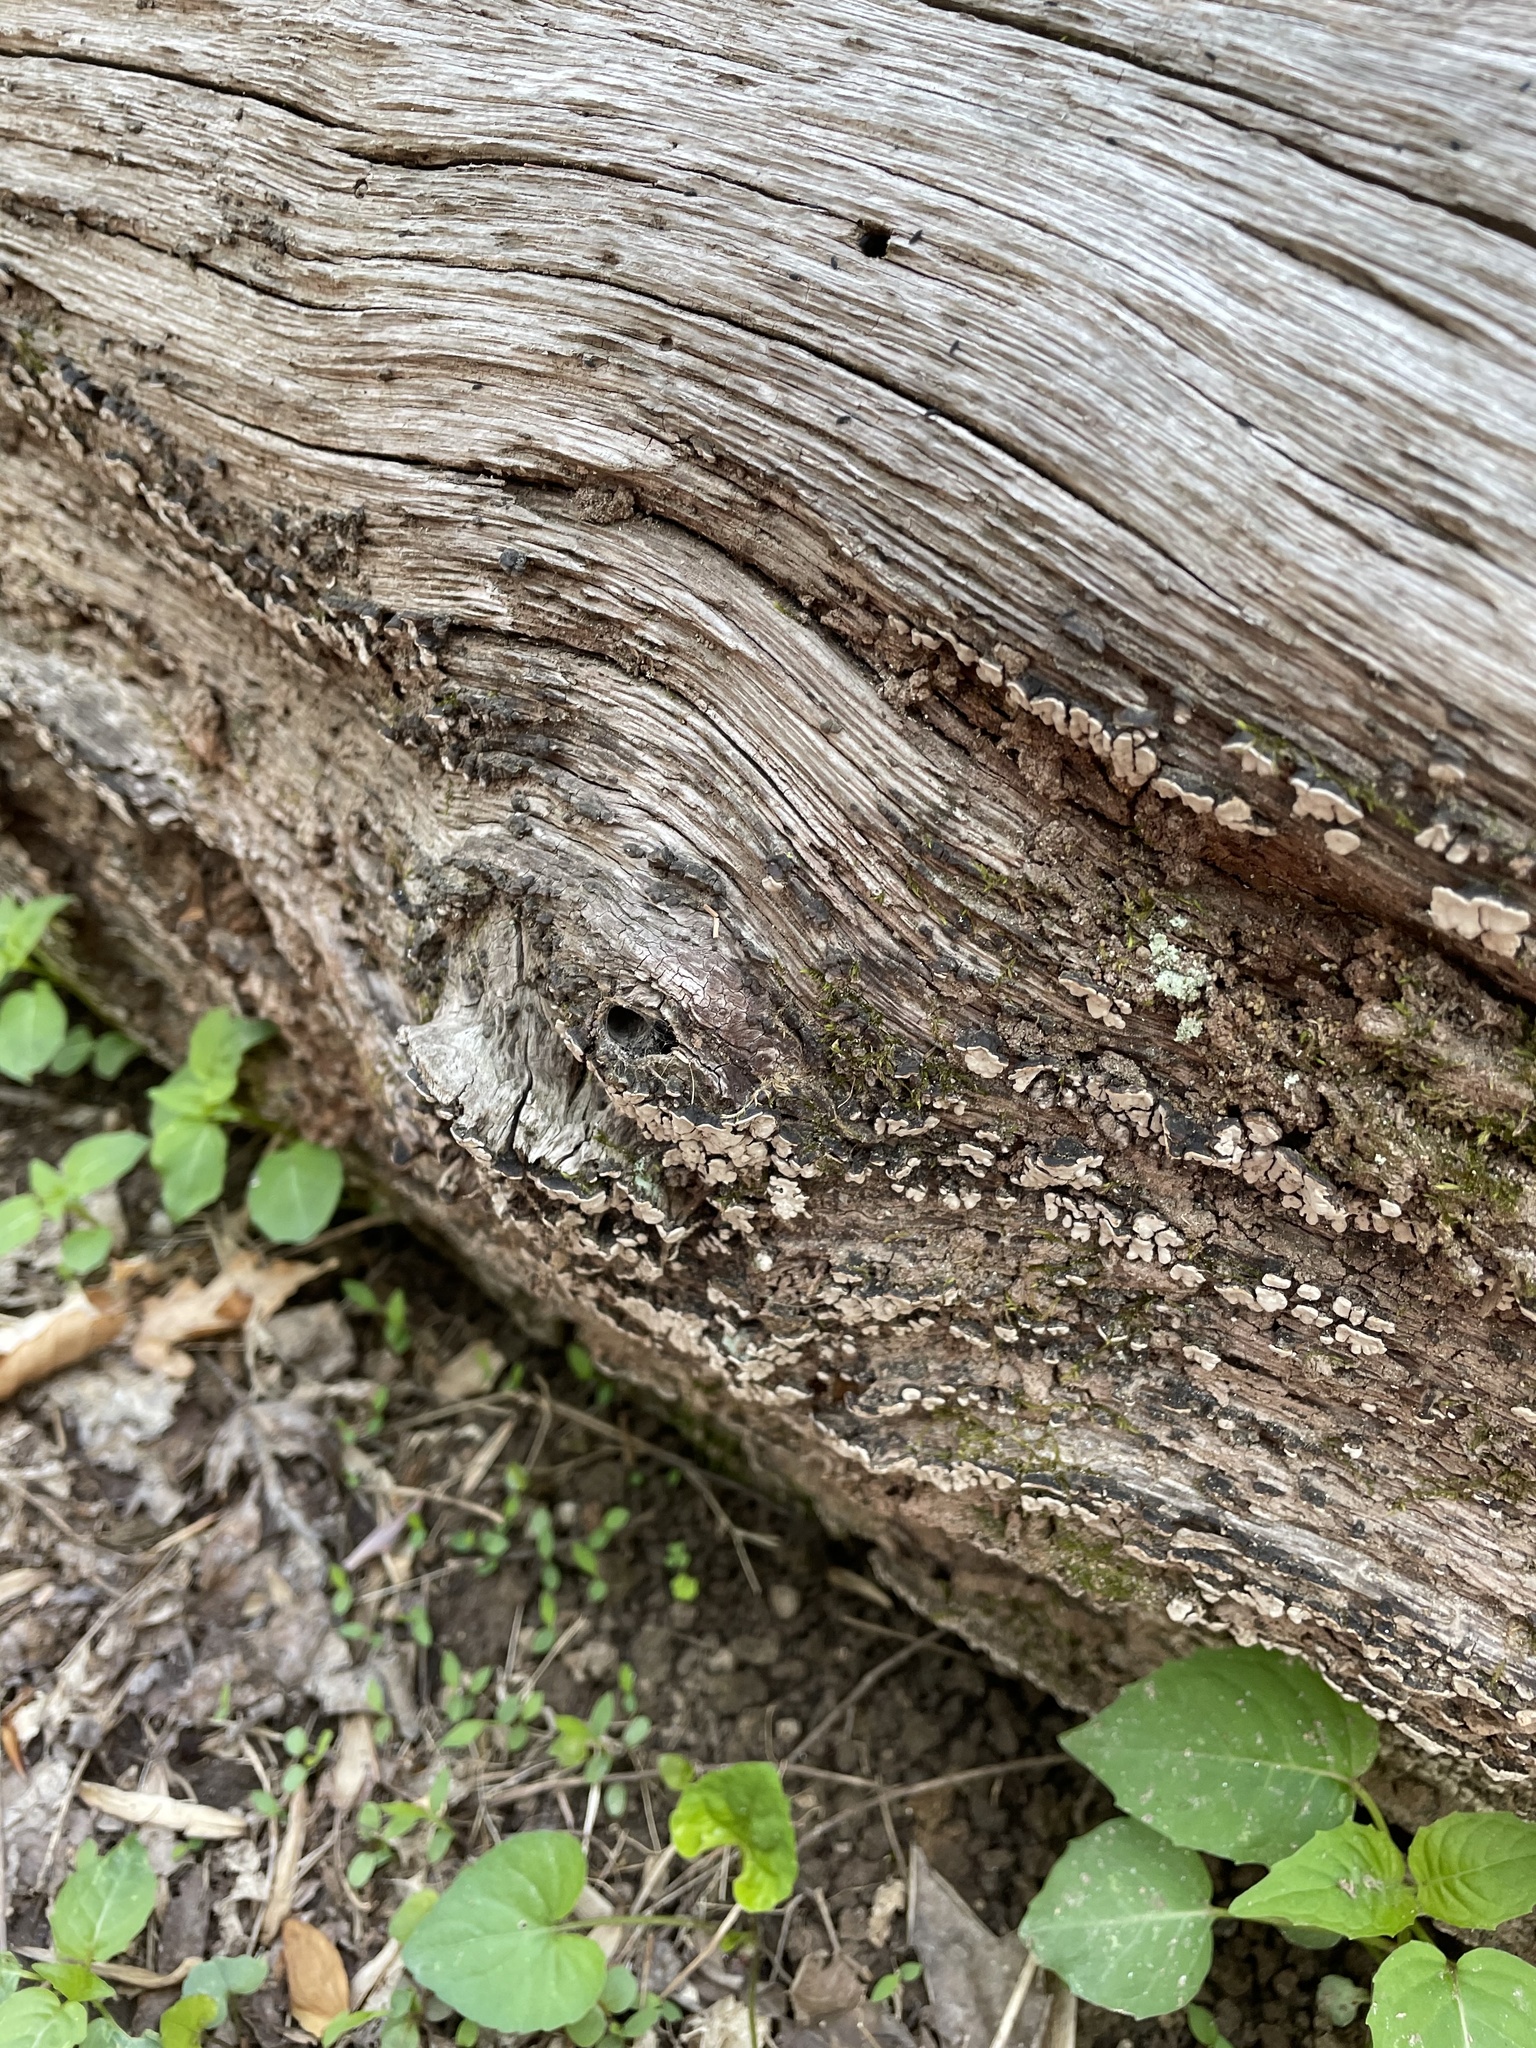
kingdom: Fungi
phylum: Basidiomycota
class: Agaricomycetes
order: Russulales
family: Stereaceae
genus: Xylobolus
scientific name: Xylobolus frustulatus
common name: Ceramic parchment
